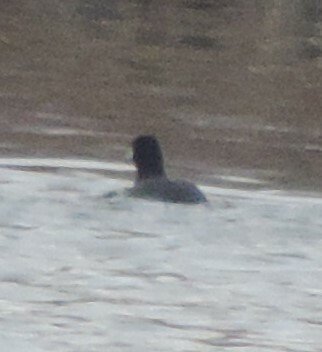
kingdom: Animalia
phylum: Chordata
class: Aves
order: Gruiformes
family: Rallidae
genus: Fulica
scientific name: Fulica americana
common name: American coot
